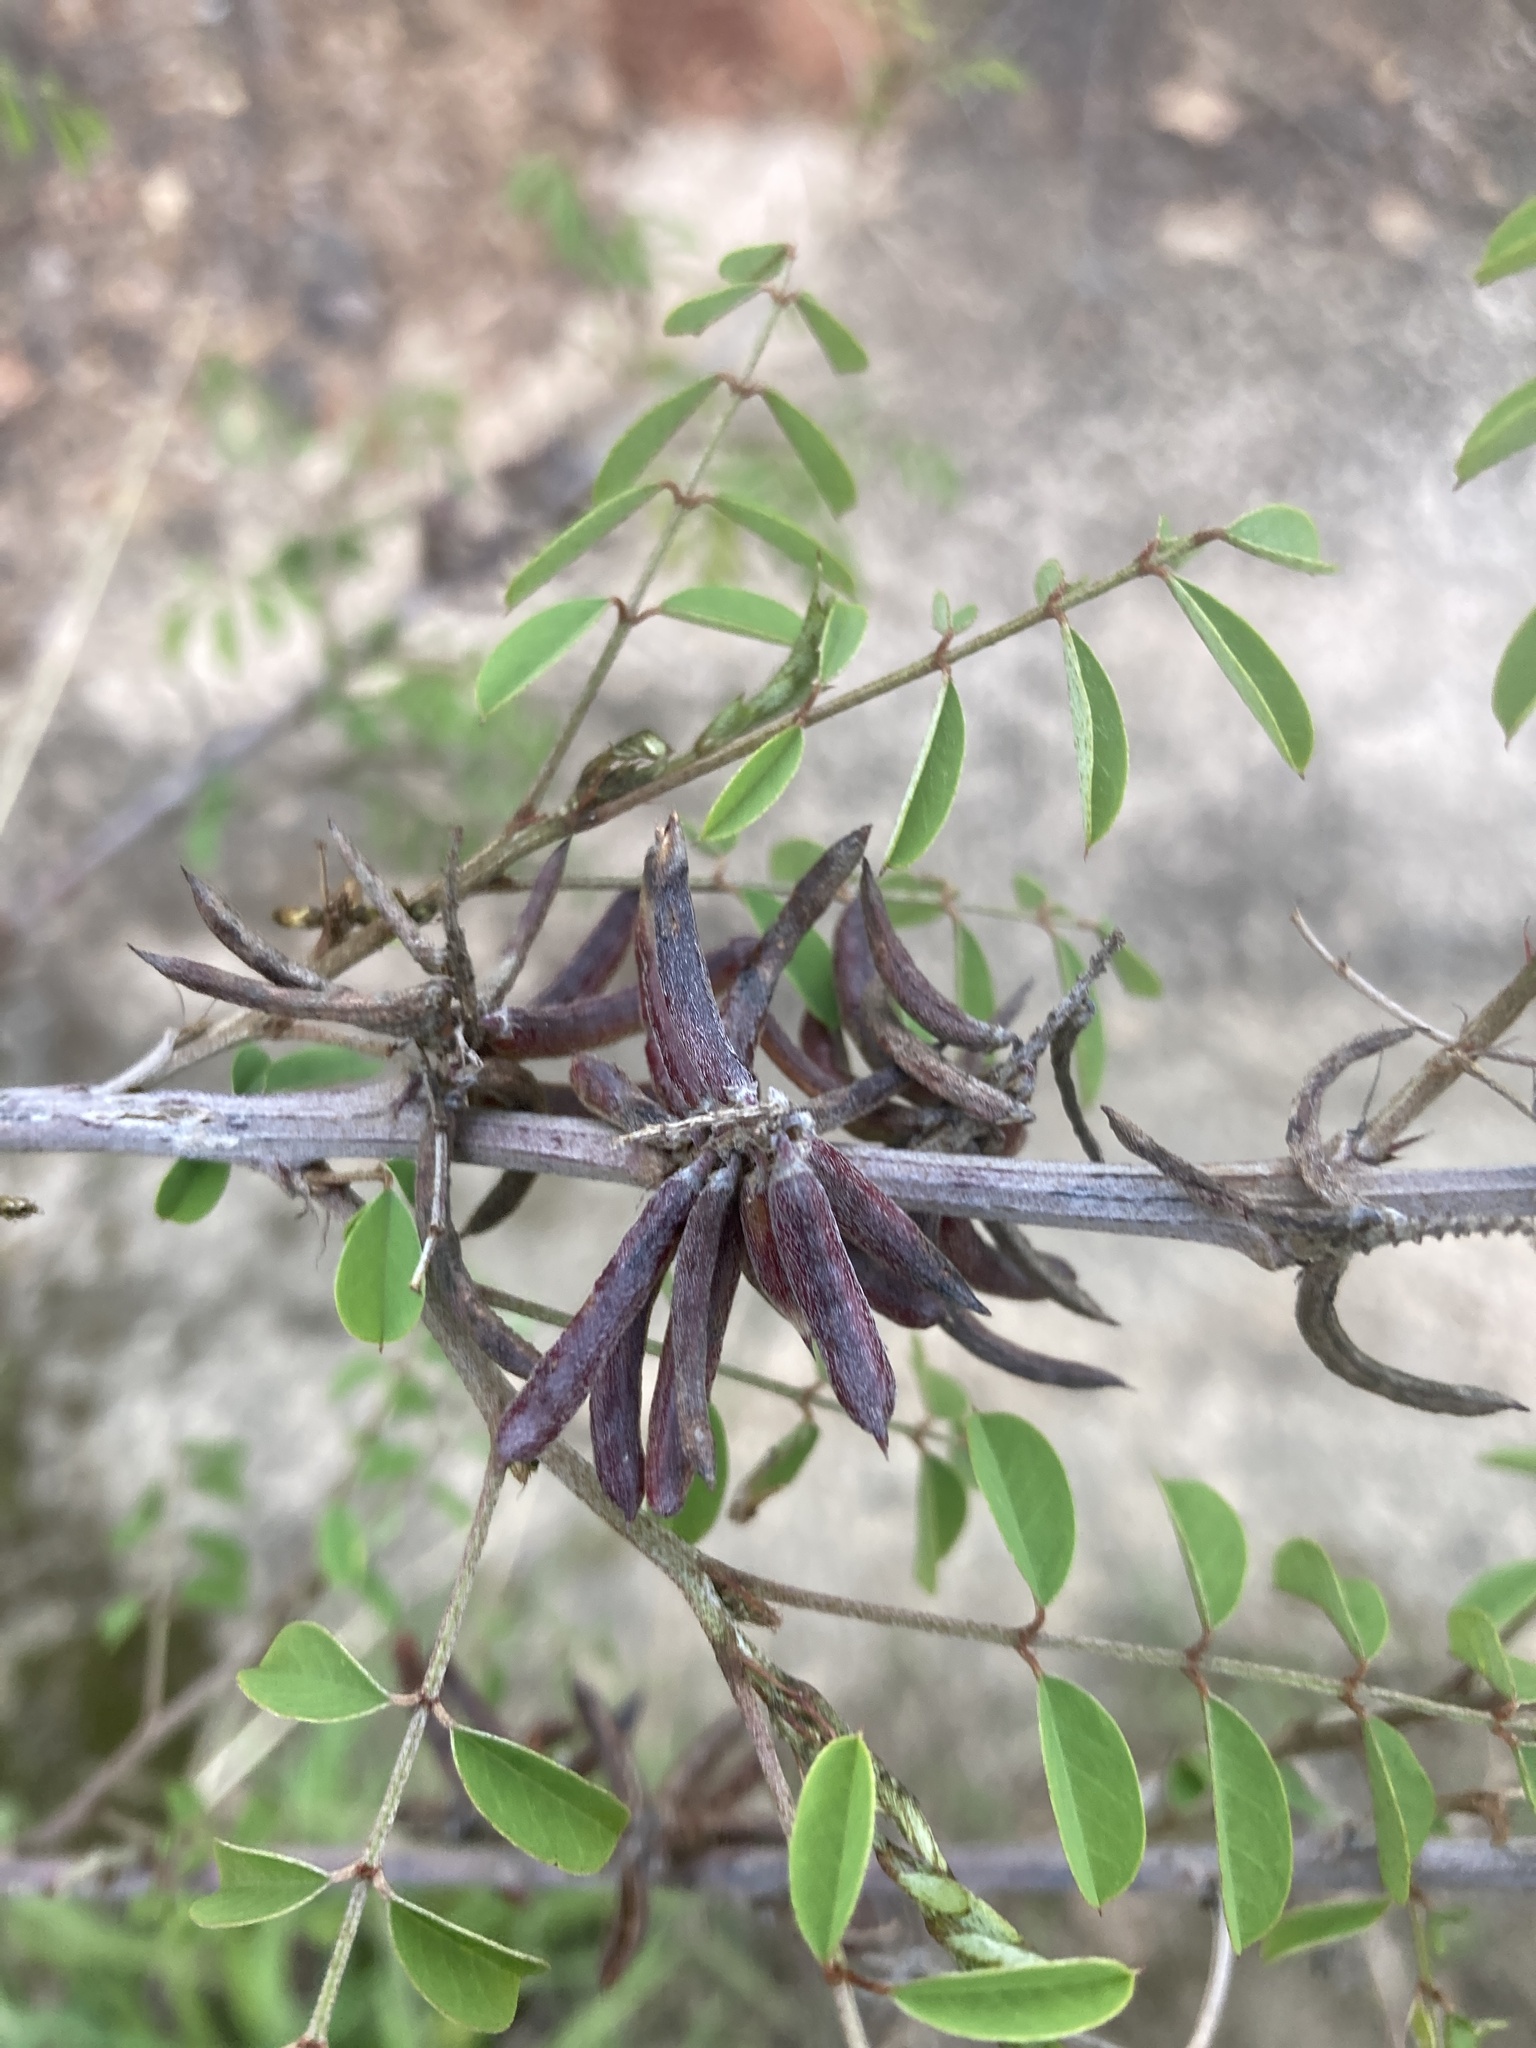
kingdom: Plantae
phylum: Tracheophyta
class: Magnoliopsida
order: Fabales
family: Fabaceae
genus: Indigofera
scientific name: Indigofera suffruticosa
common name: Anil de pasto
